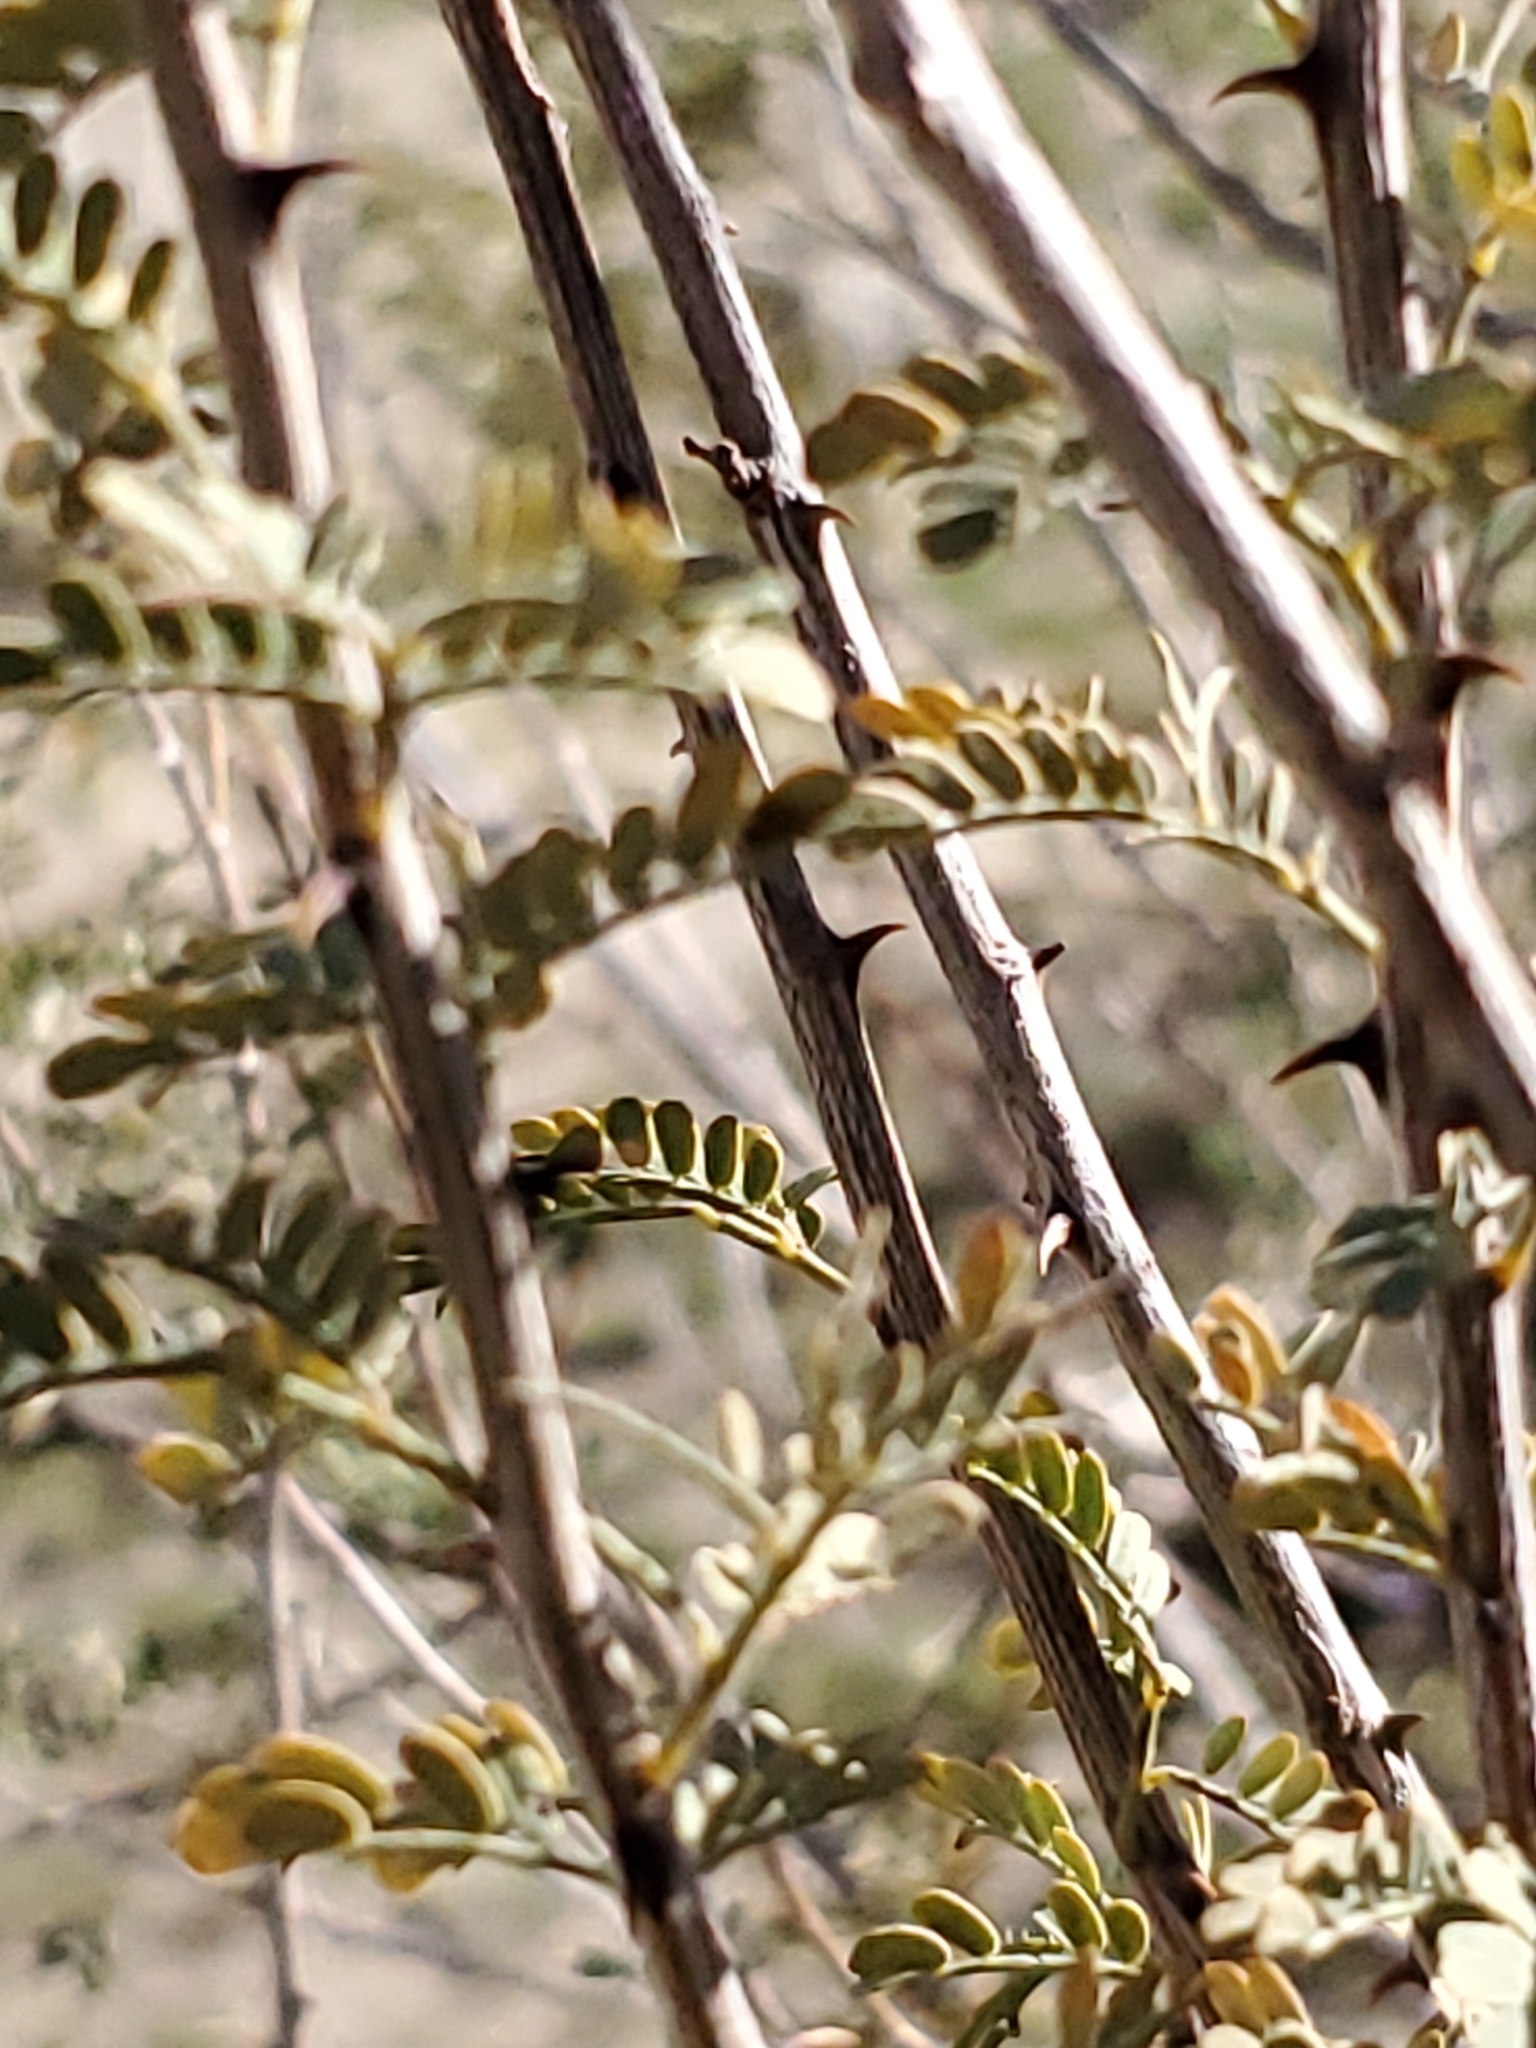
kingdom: Plantae
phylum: Tracheophyta
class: Magnoliopsida
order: Fabales
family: Fabaceae
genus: Senegalia
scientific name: Senegalia greggii
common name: Texas-mimosa
